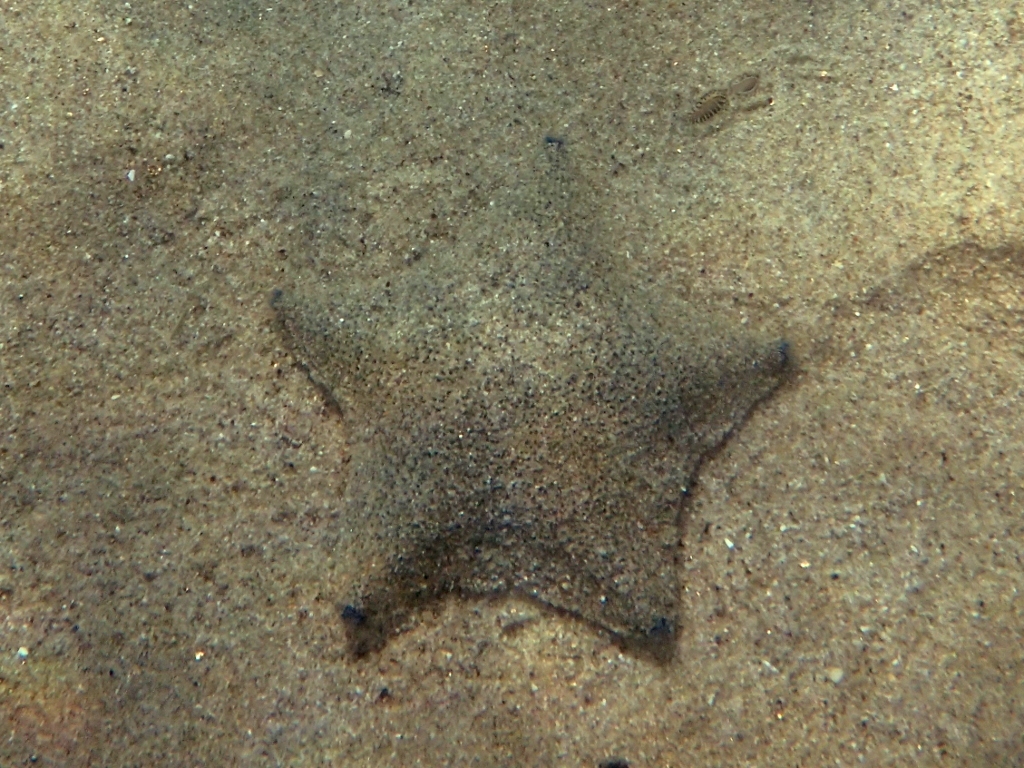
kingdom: Animalia
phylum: Echinodermata
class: Asteroidea
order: Valvatida
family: Asterinidae
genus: Patiriella
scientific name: Patiriella regularis
